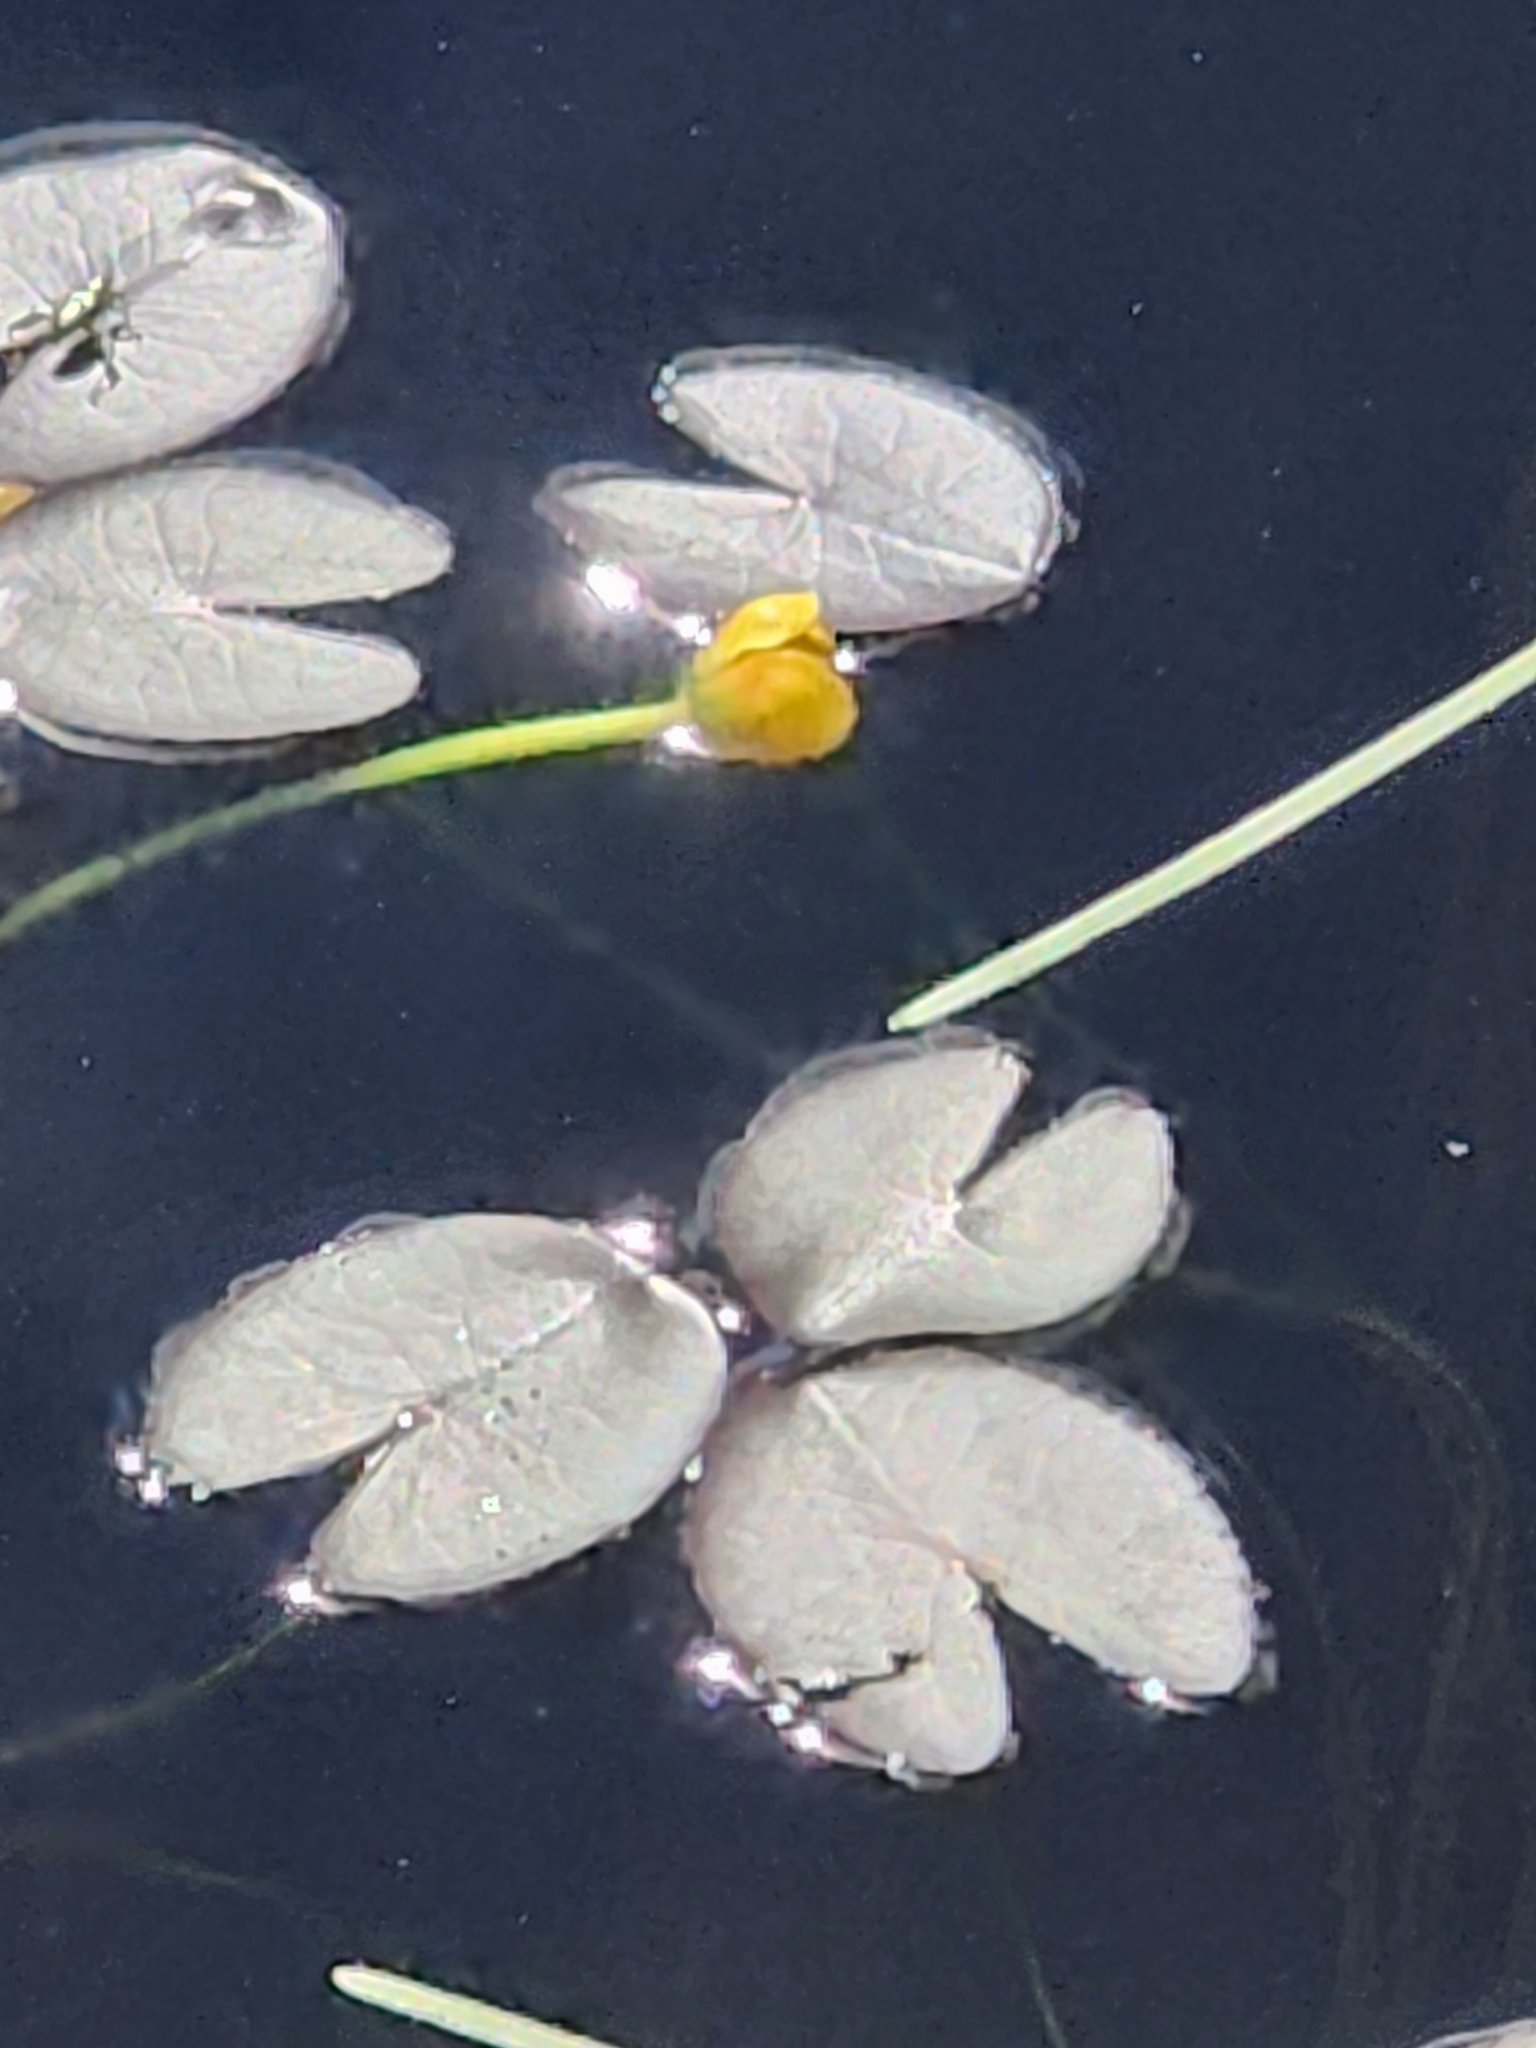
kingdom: Plantae
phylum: Tracheophyta
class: Magnoliopsida
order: Nymphaeales
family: Nymphaeaceae
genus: Nuphar
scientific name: Nuphar microphylla
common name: Small pond-lily
